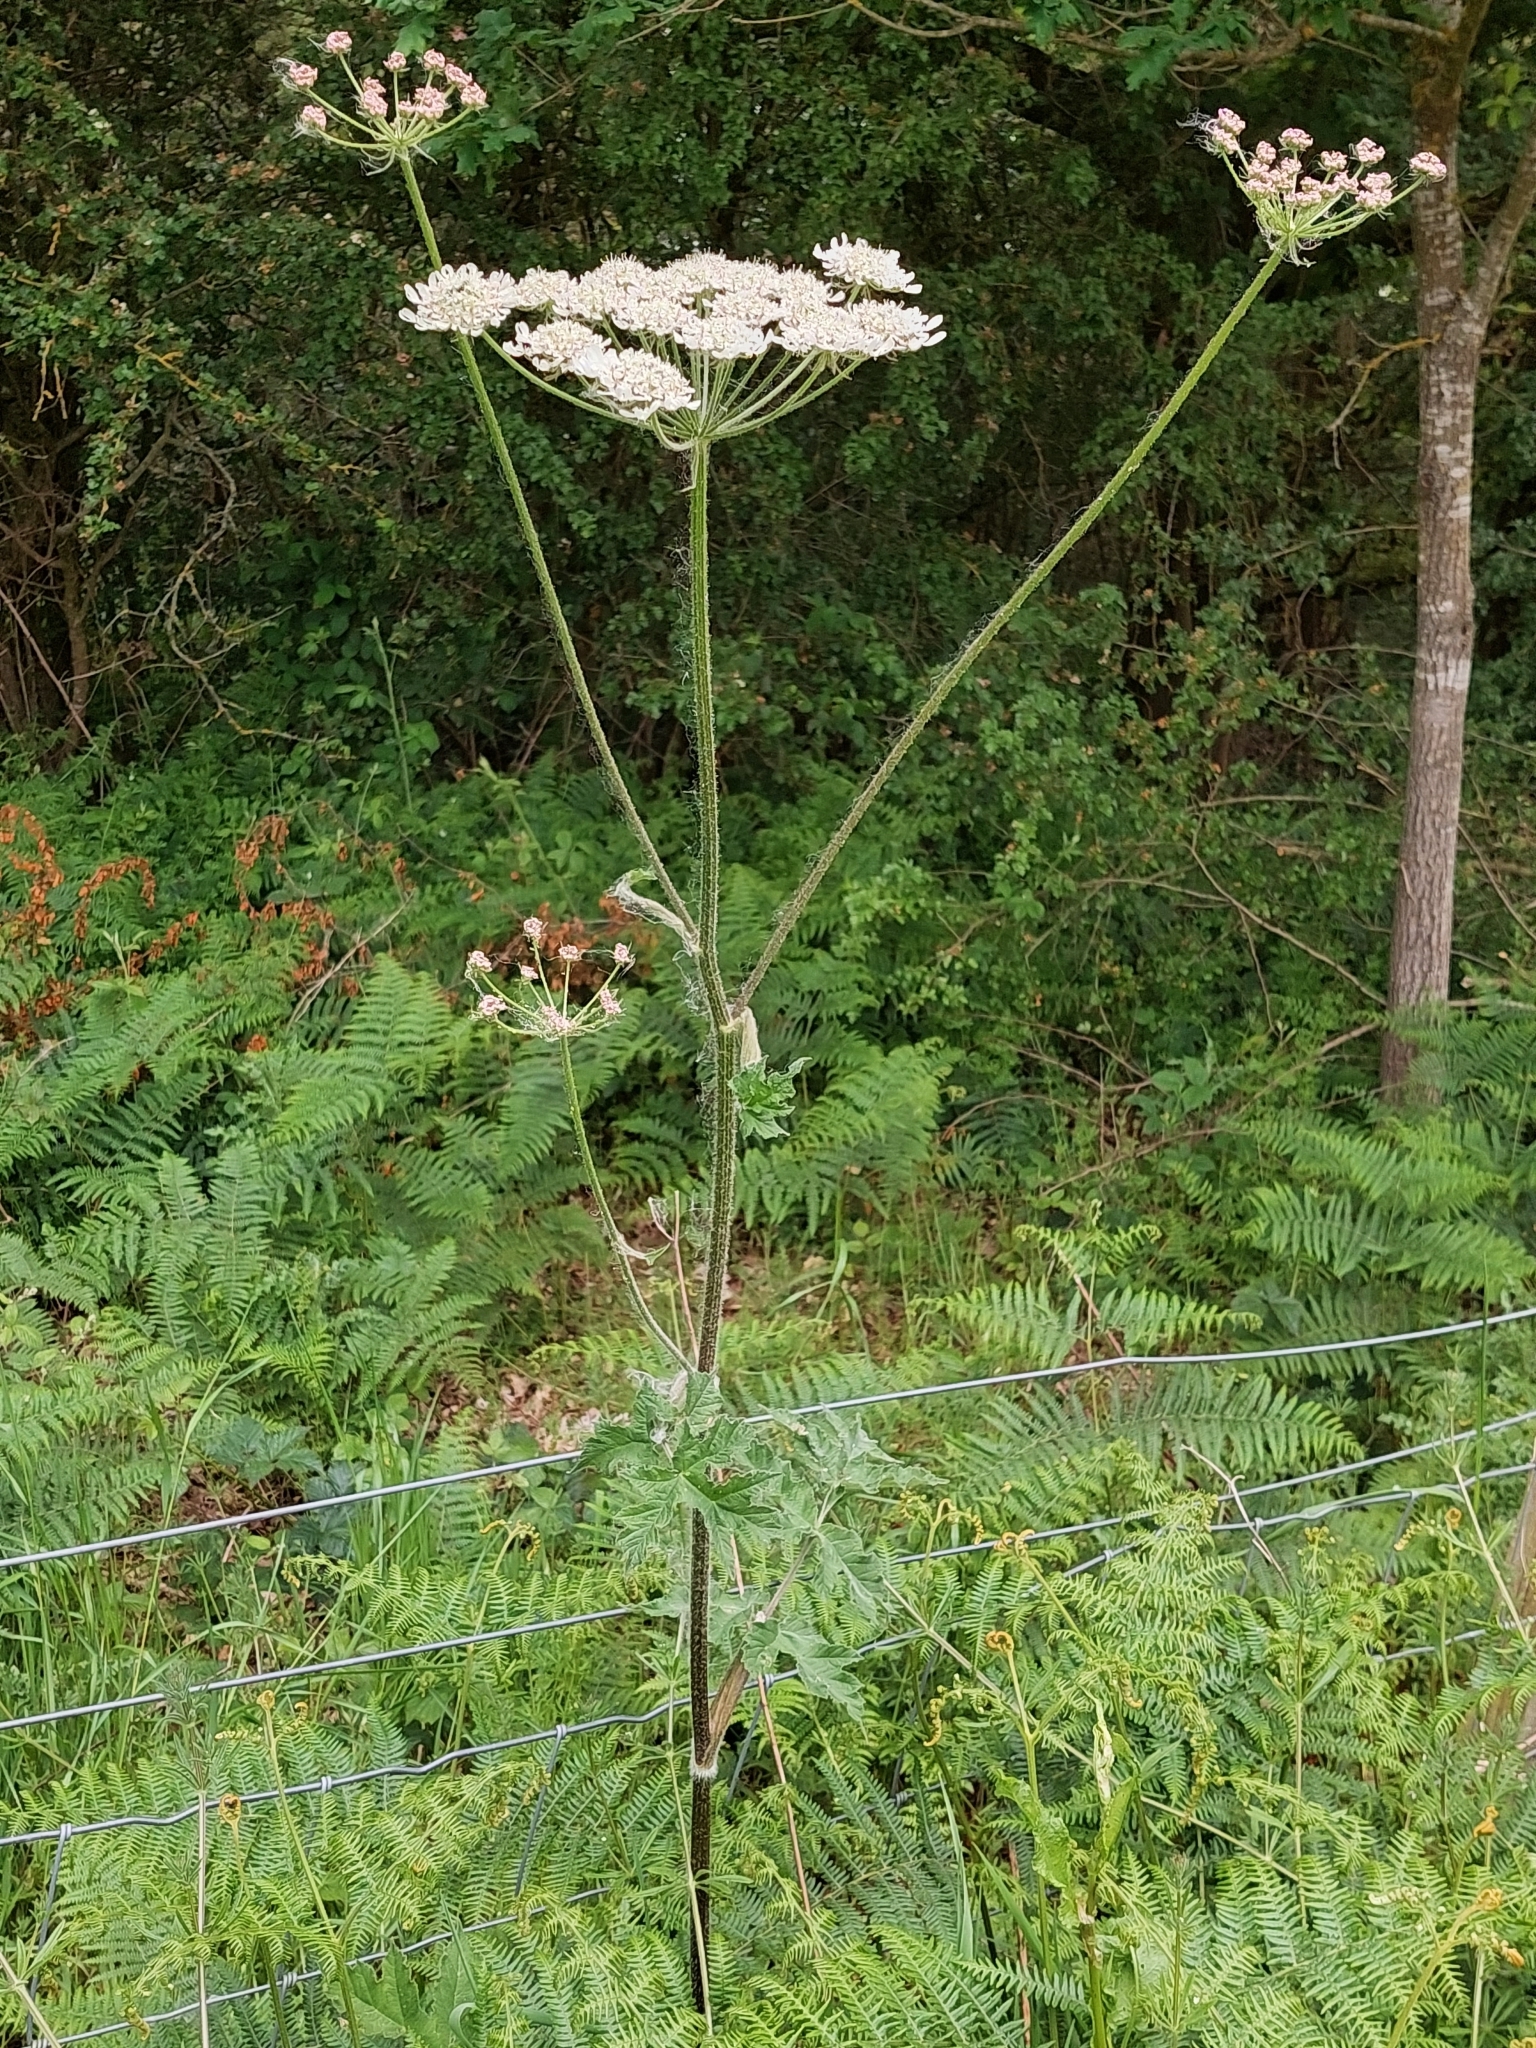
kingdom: Plantae
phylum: Tracheophyta
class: Magnoliopsida
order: Apiales
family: Apiaceae
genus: Heracleum
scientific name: Heracleum sphondylium
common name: Hogweed
